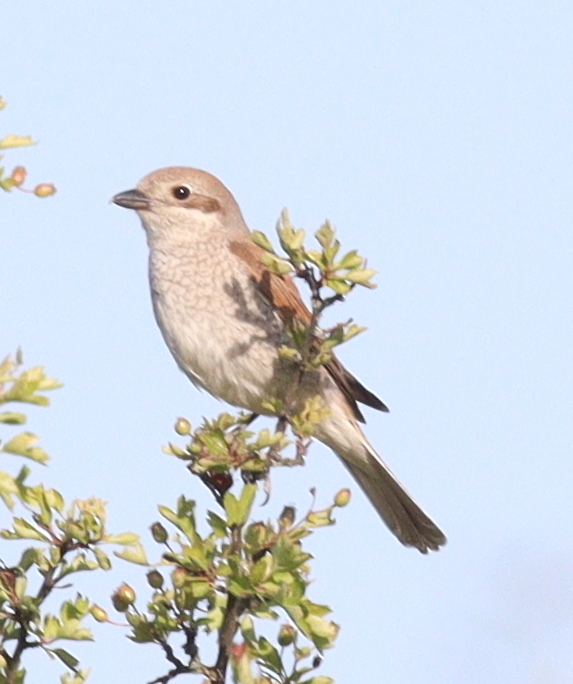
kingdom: Animalia
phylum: Chordata
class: Aves
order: Passeriformes
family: Laniidae
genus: Lanius
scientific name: Lanius collurio
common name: Red-backed shrike
